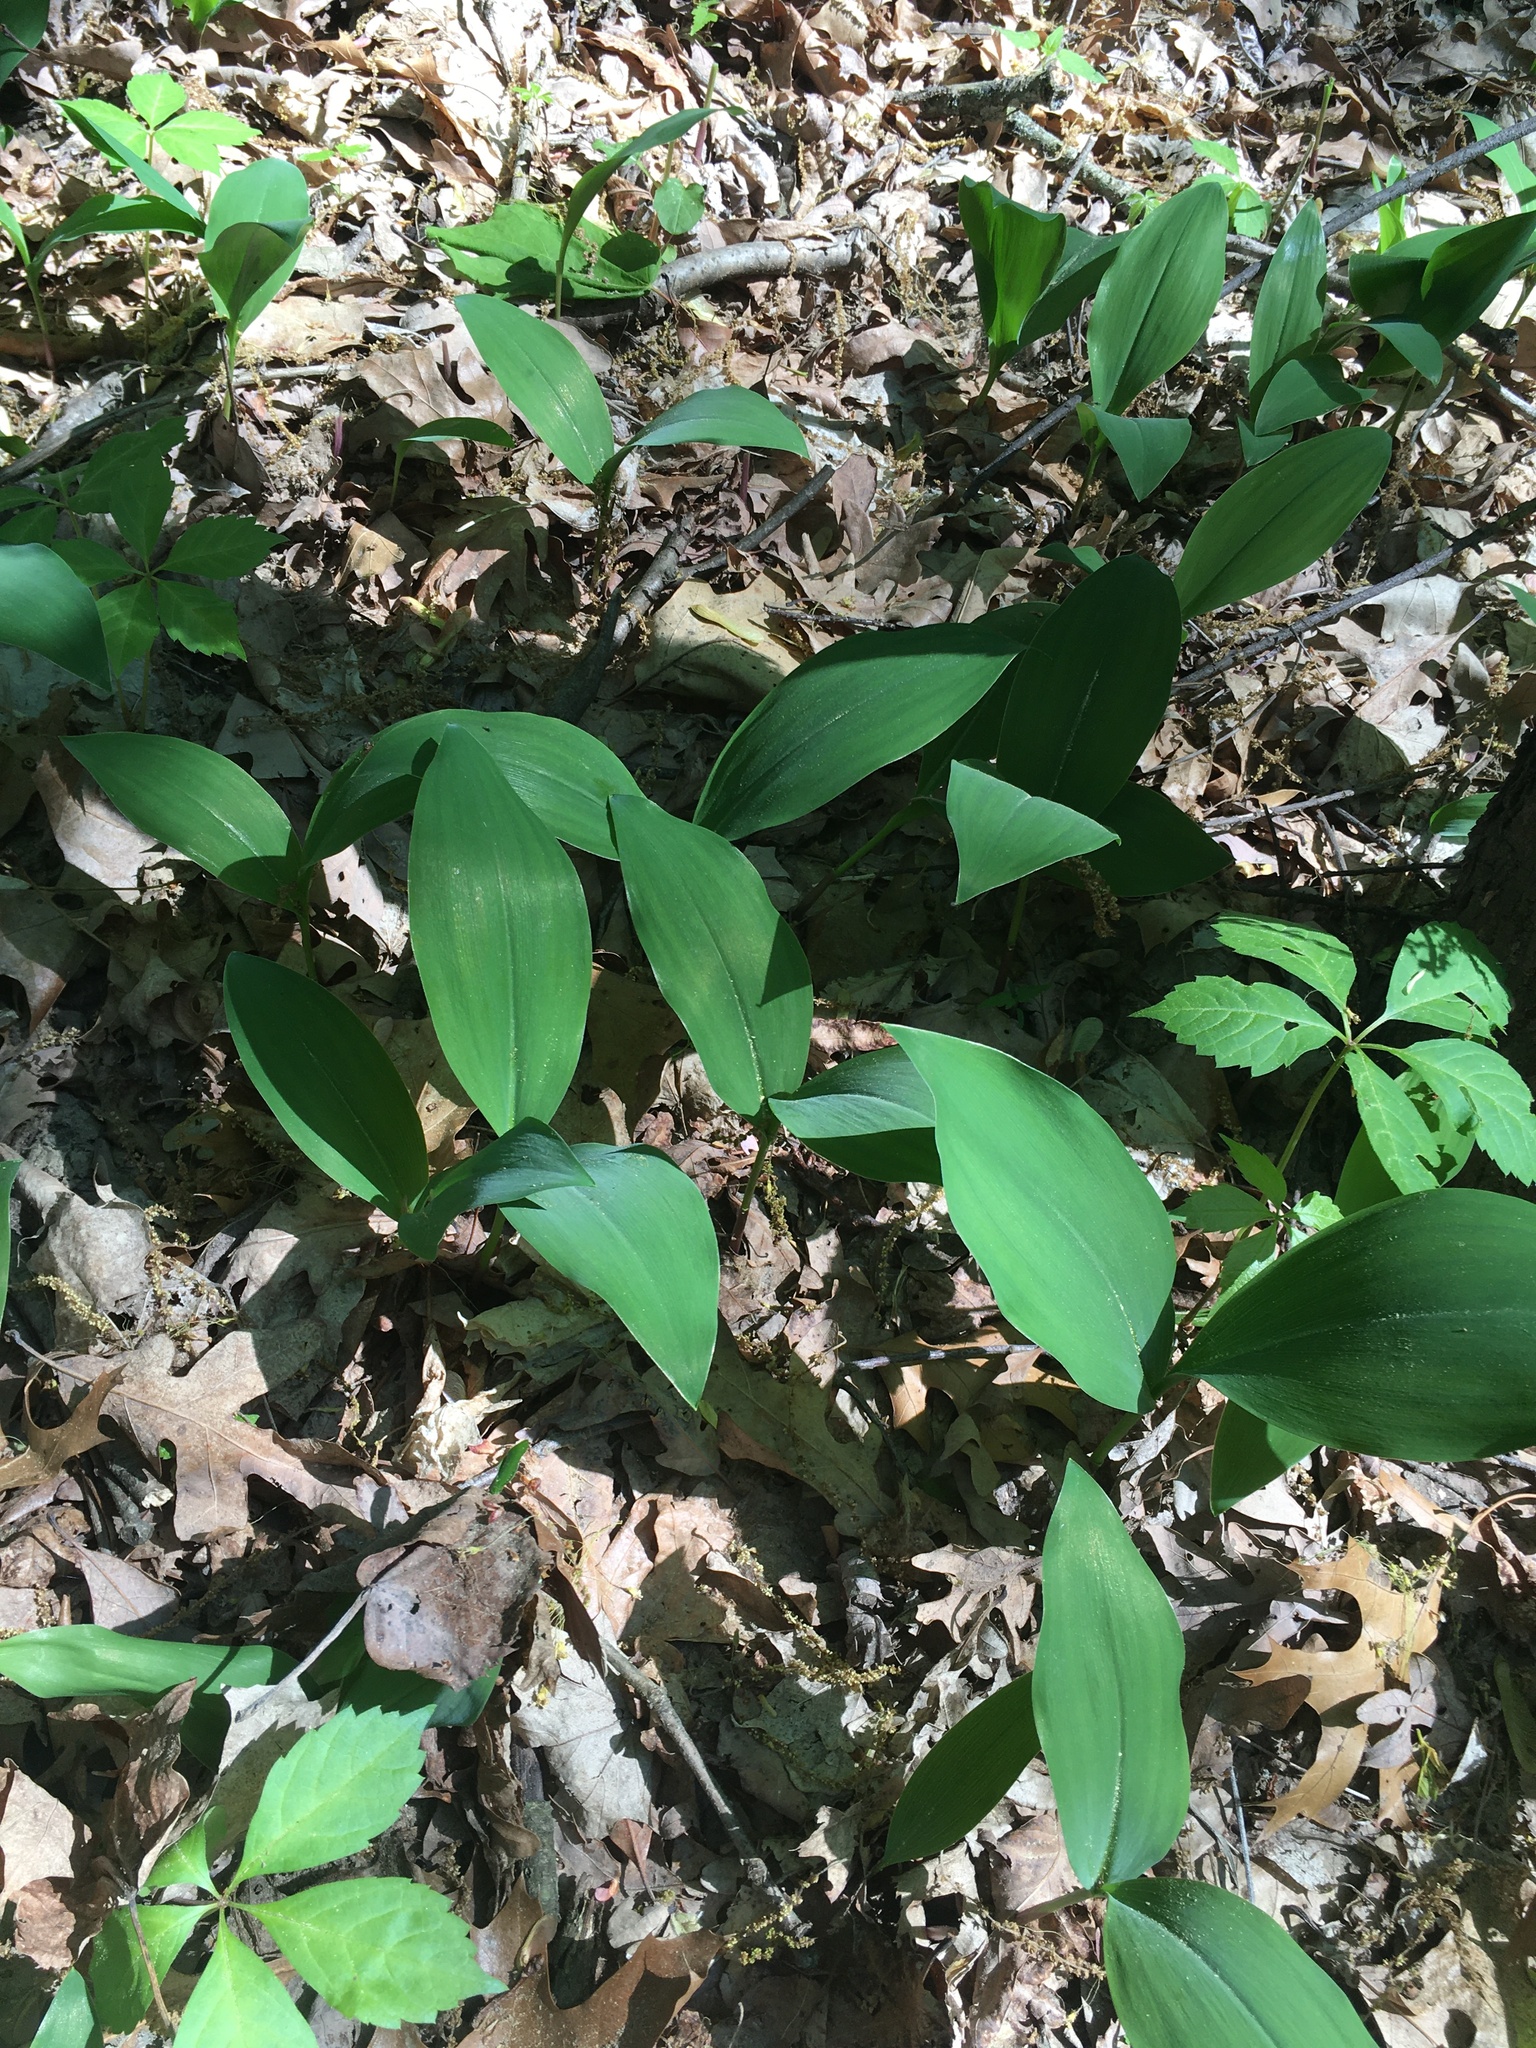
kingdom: Plantae
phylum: Tracheophyta
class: Liliopsida
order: Asparagales
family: Asparagaceae
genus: Convallaria
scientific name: Convallaria majalis
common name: Lily-of-the-valley
